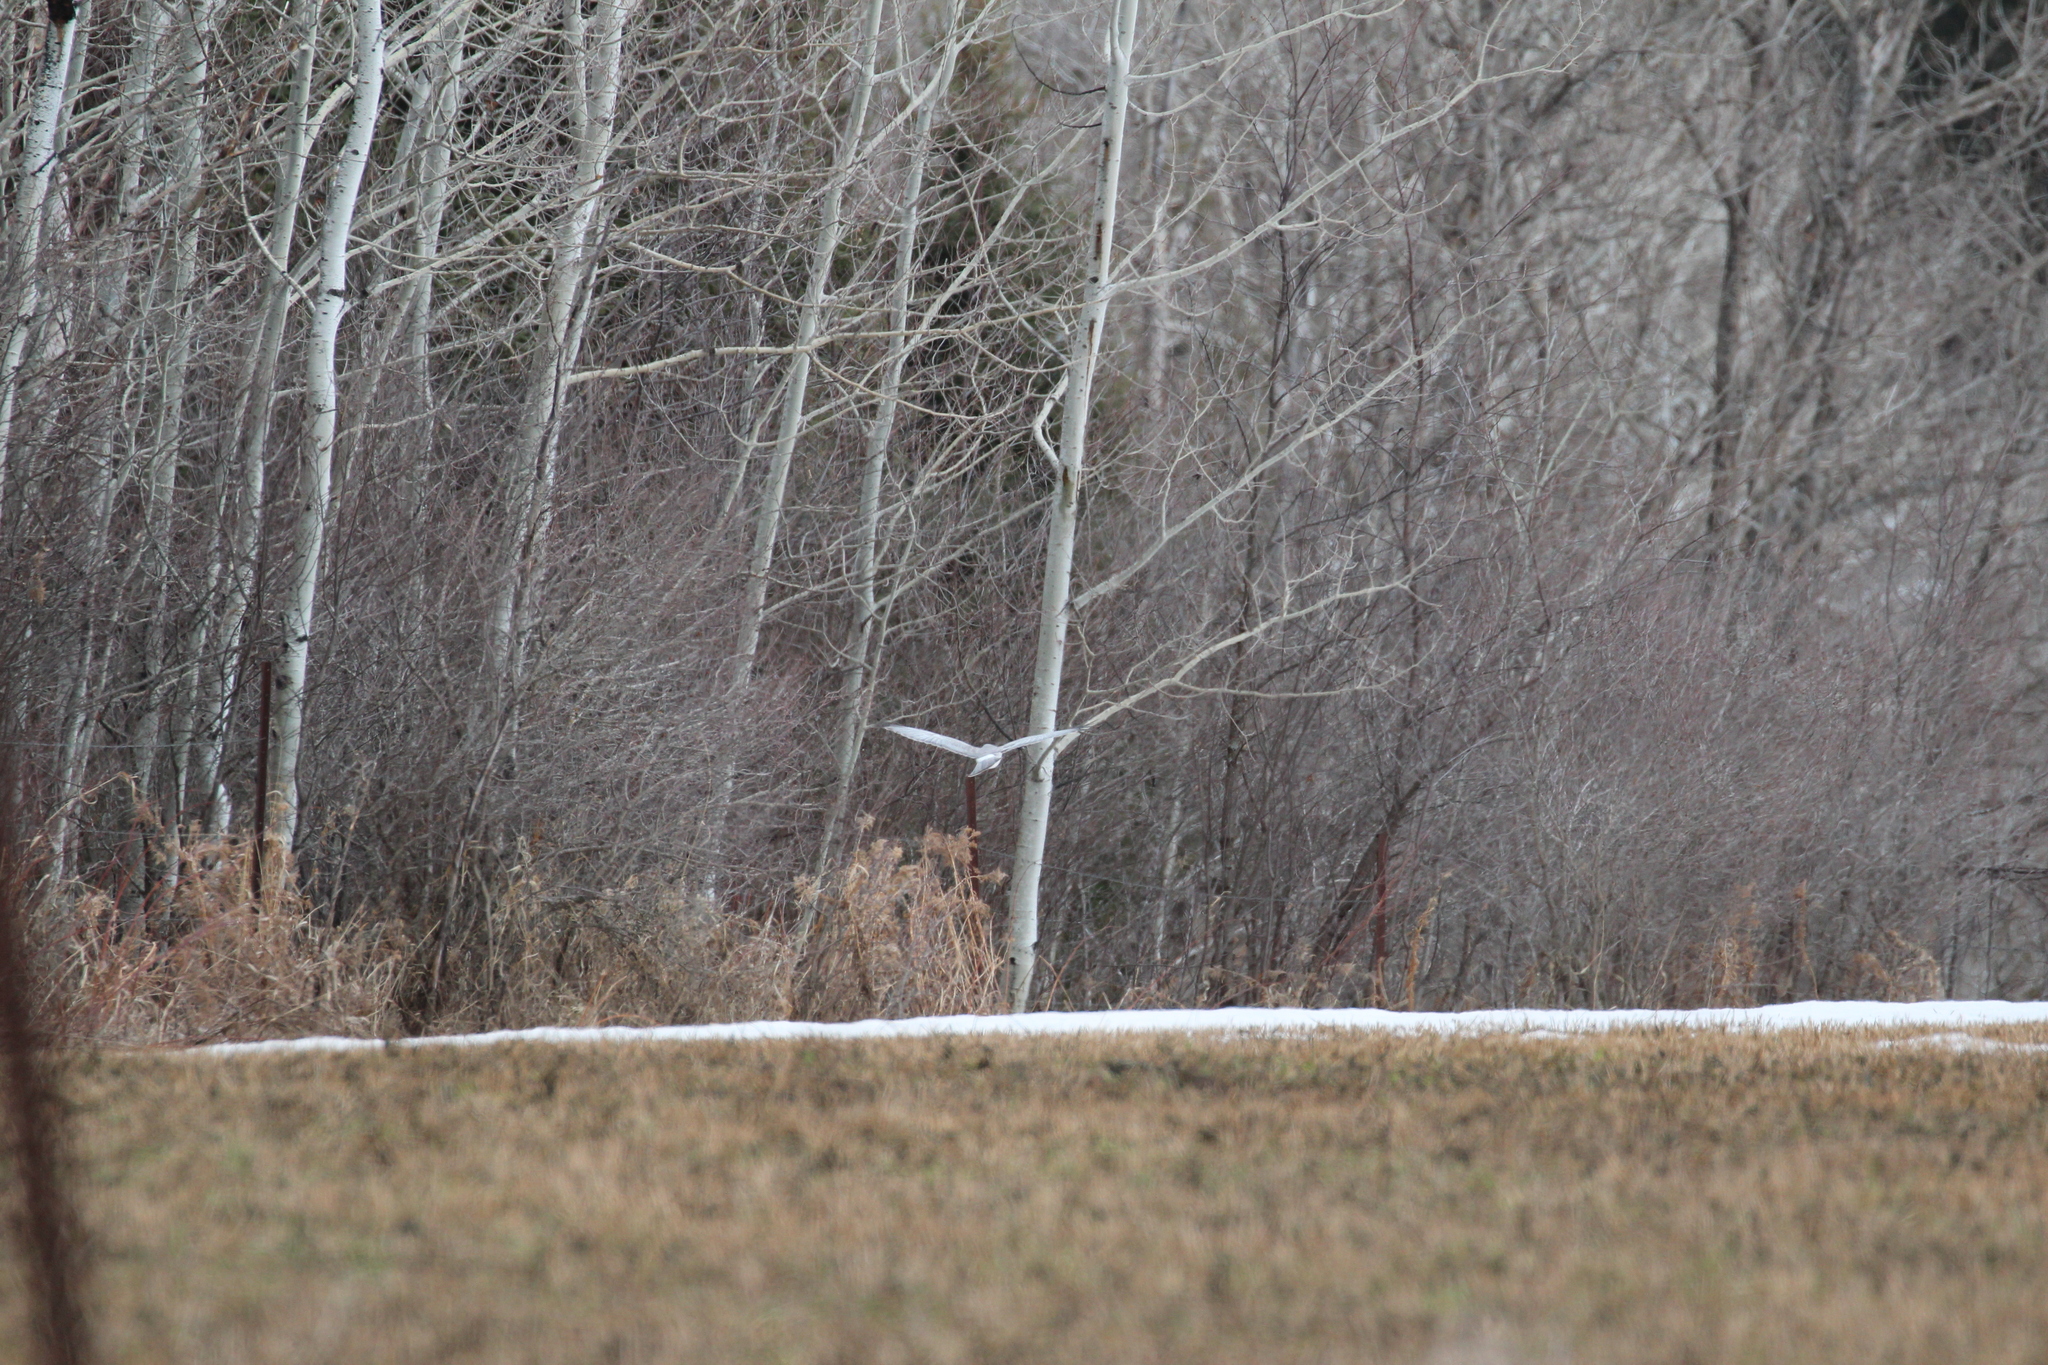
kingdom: Animalia
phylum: Chordata
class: Aves
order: Accipitriformes
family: Accipitridae
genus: Circus
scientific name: Circus cyaneus
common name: Hen harrier
